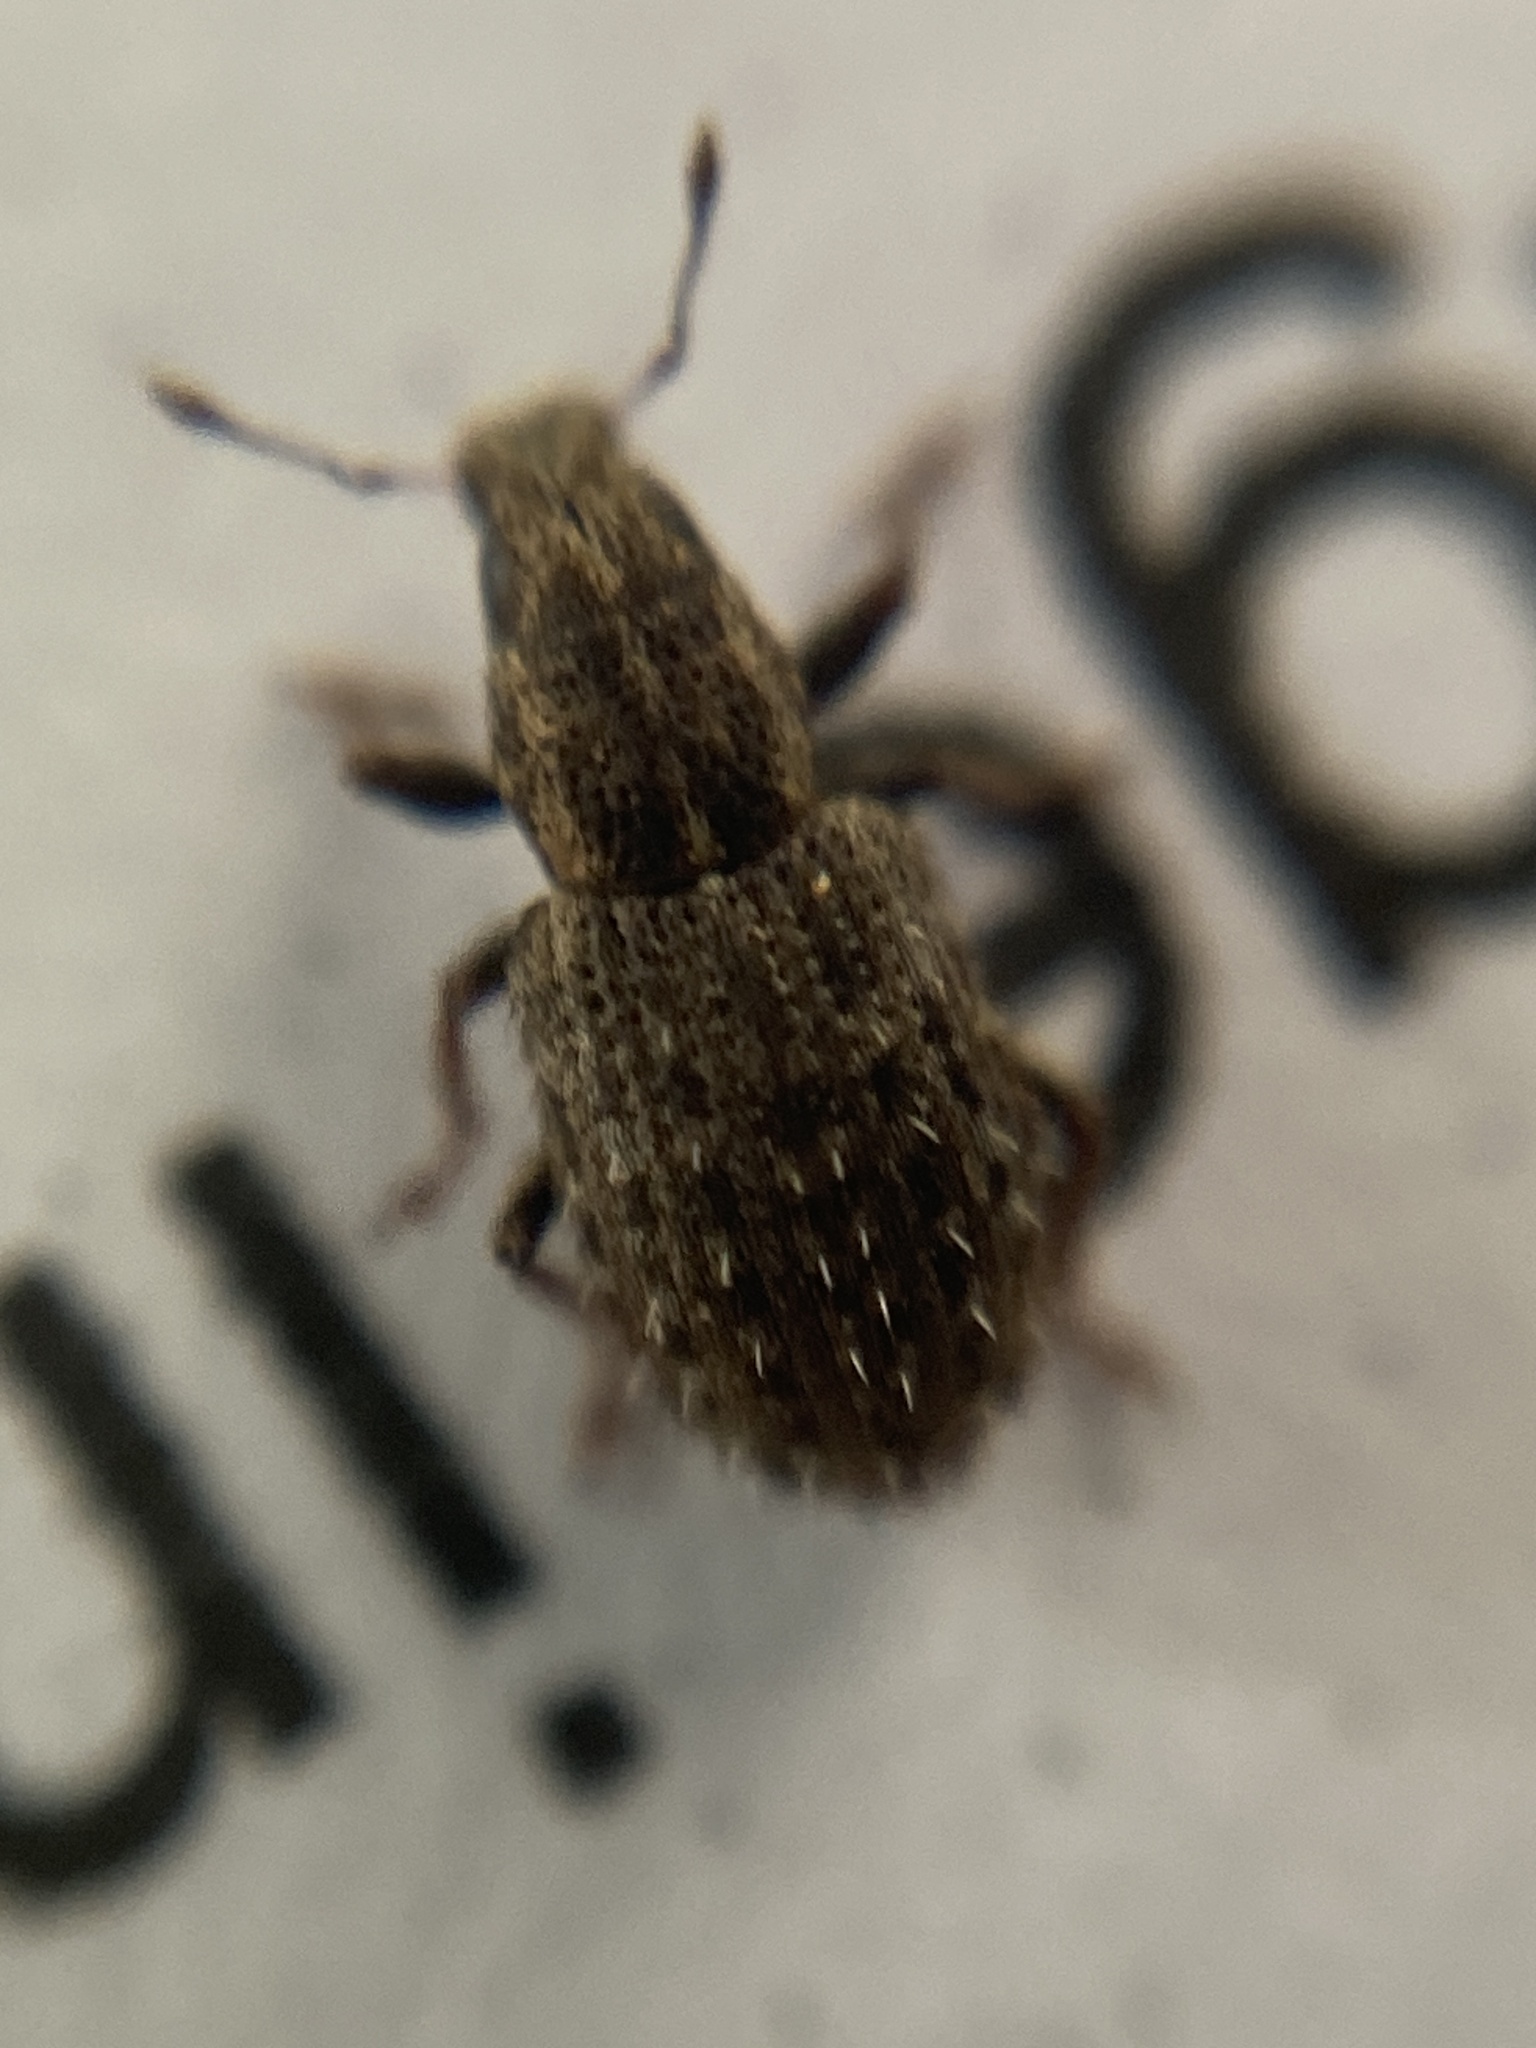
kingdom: Animalia
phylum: Arthropoda
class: Insecta
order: Coleoptera
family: Curculionidae
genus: Sitona
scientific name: Sitona hispidulus
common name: Clover weevil
